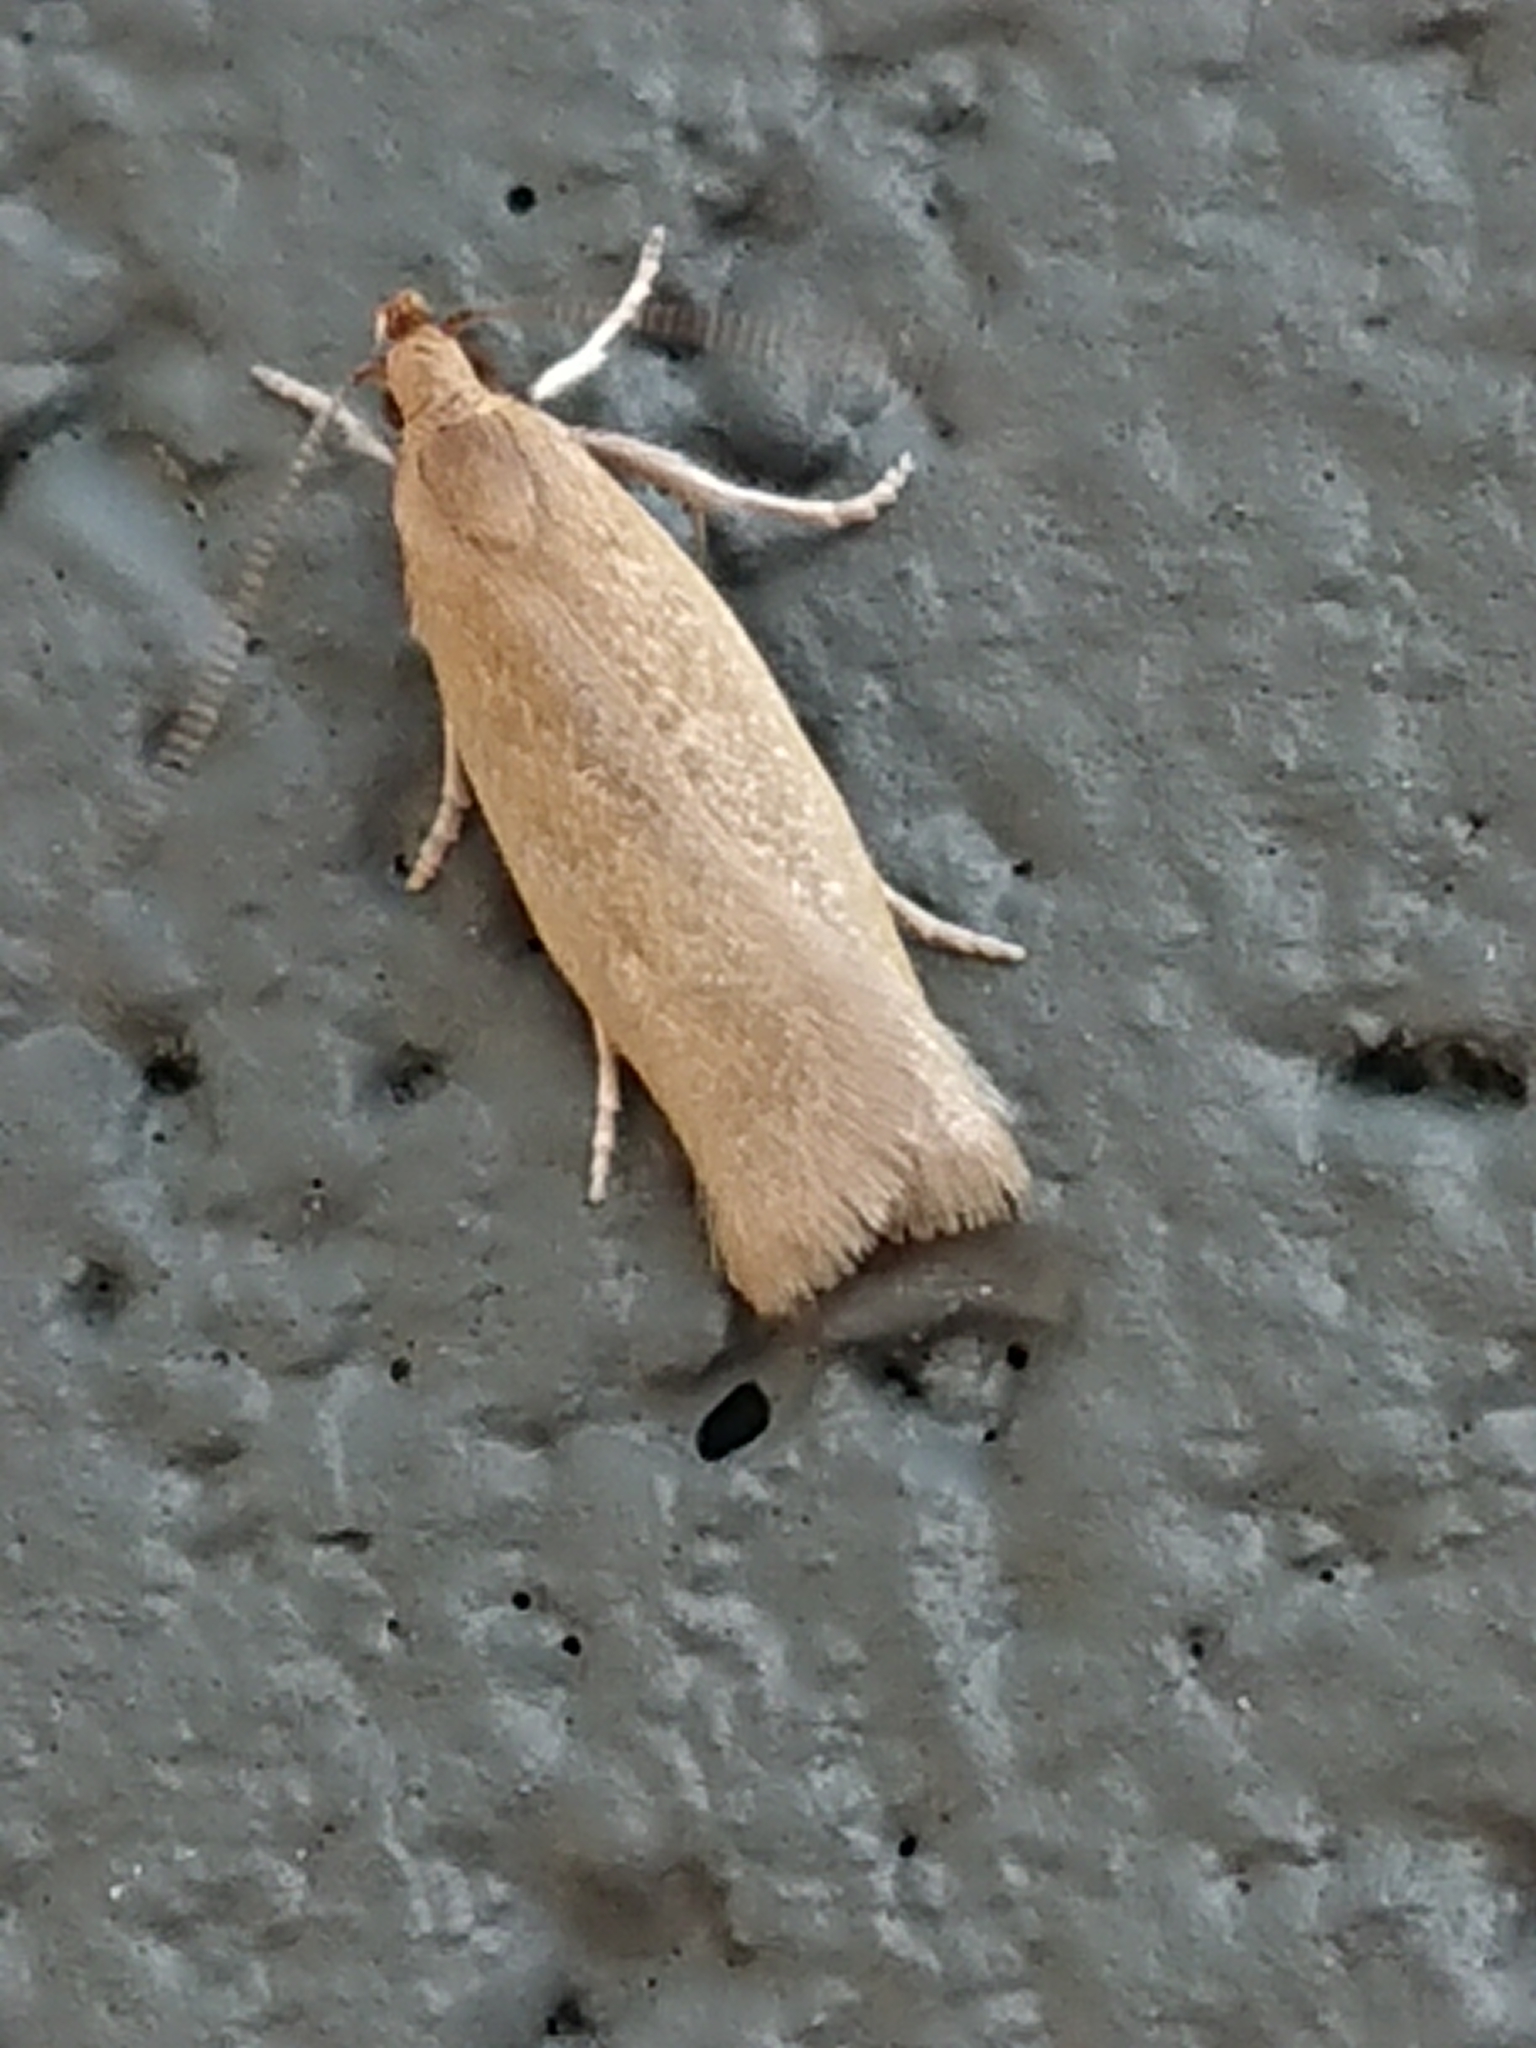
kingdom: Animalia
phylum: Arthropoda
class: Insecta
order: Lepidoptera
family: Oecophoridae
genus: Gymnobathra
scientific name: Gymnobathra parca
